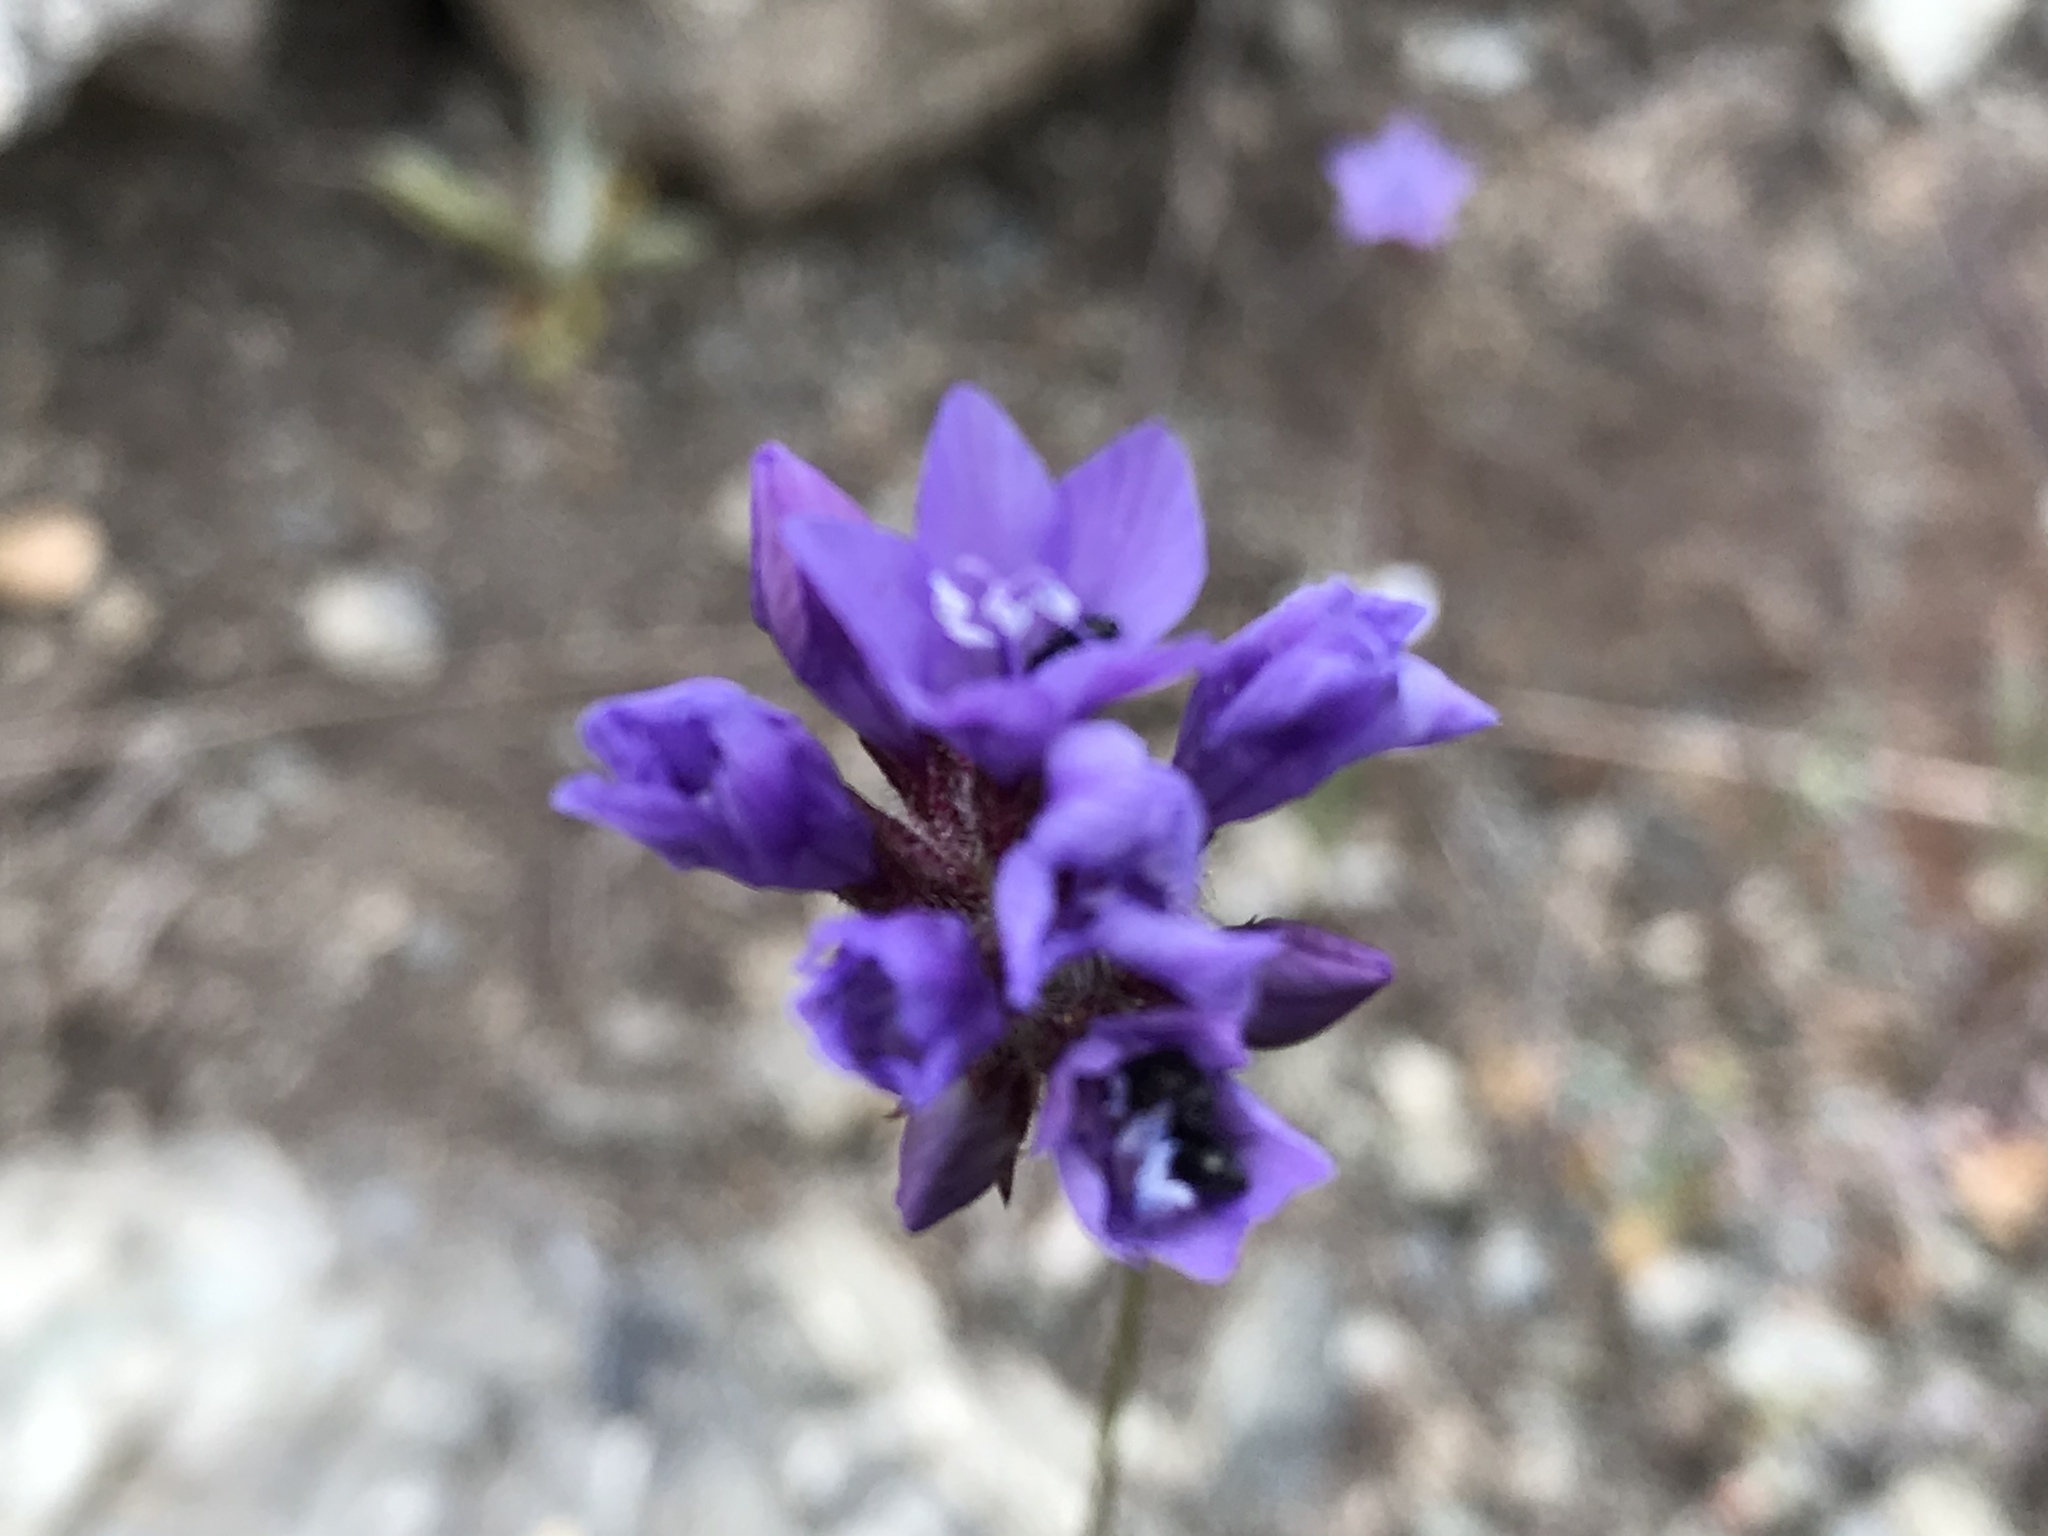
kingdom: Plantae
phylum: Tracheophyta
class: Magnoliopsida
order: Ericales
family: Polemoniaceae
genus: Gilia
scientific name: Gilia achilleifolia
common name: California gily-flower
